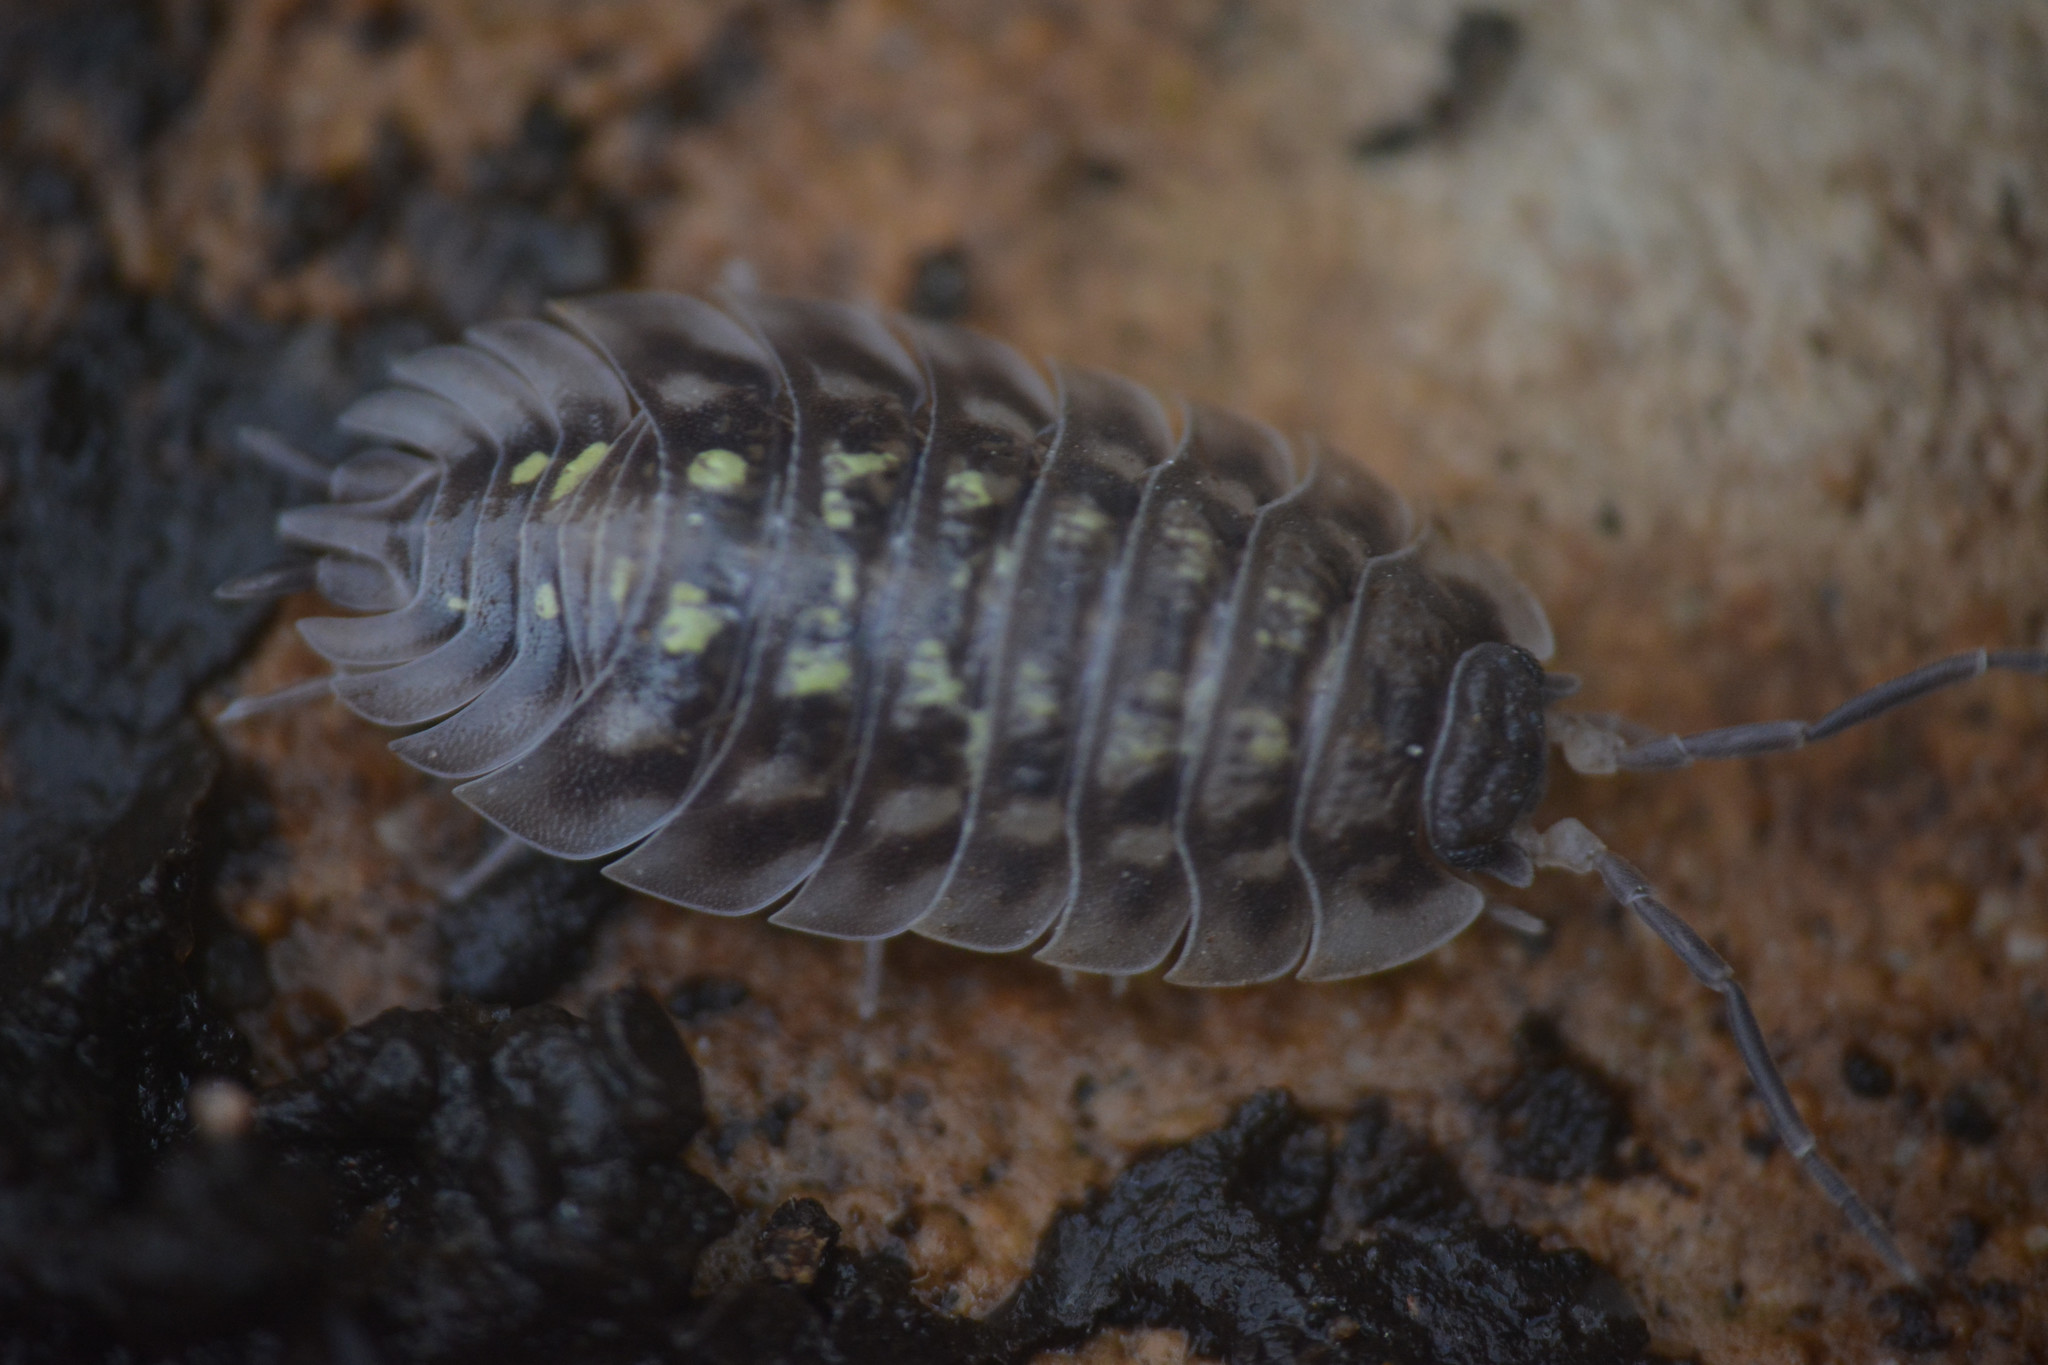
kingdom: Animalia
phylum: Arthropoda
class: Malacostraca
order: Isopoda
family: Oniscidae
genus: Oniscus
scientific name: Oniscus asellus
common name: Common shiny woodlouse
